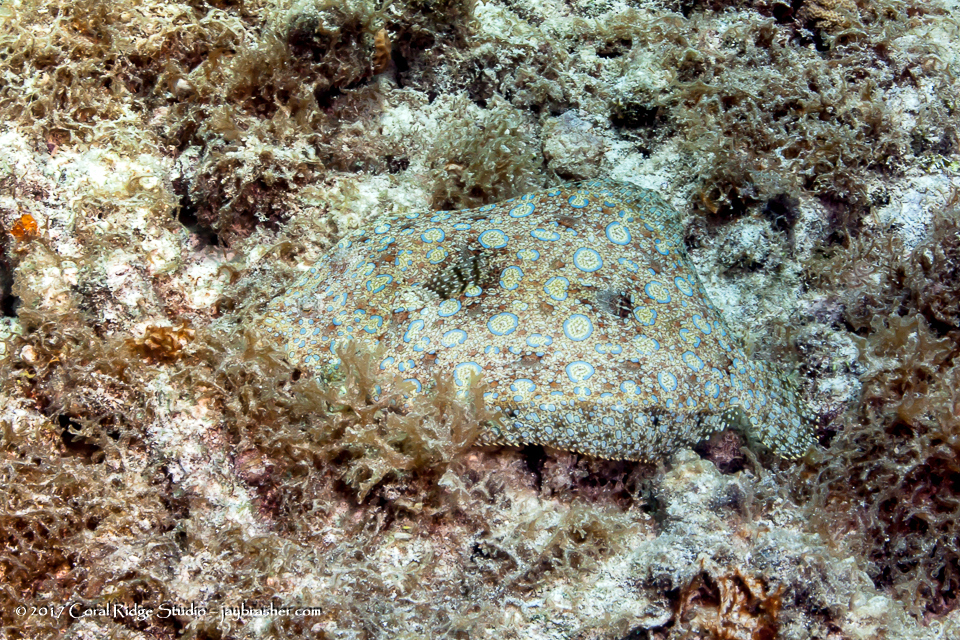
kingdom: Animalia
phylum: Chordata
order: Pleuronectiformes
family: Bothidae
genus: Bothus
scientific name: Bothus lunatus
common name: Peacock flounder
